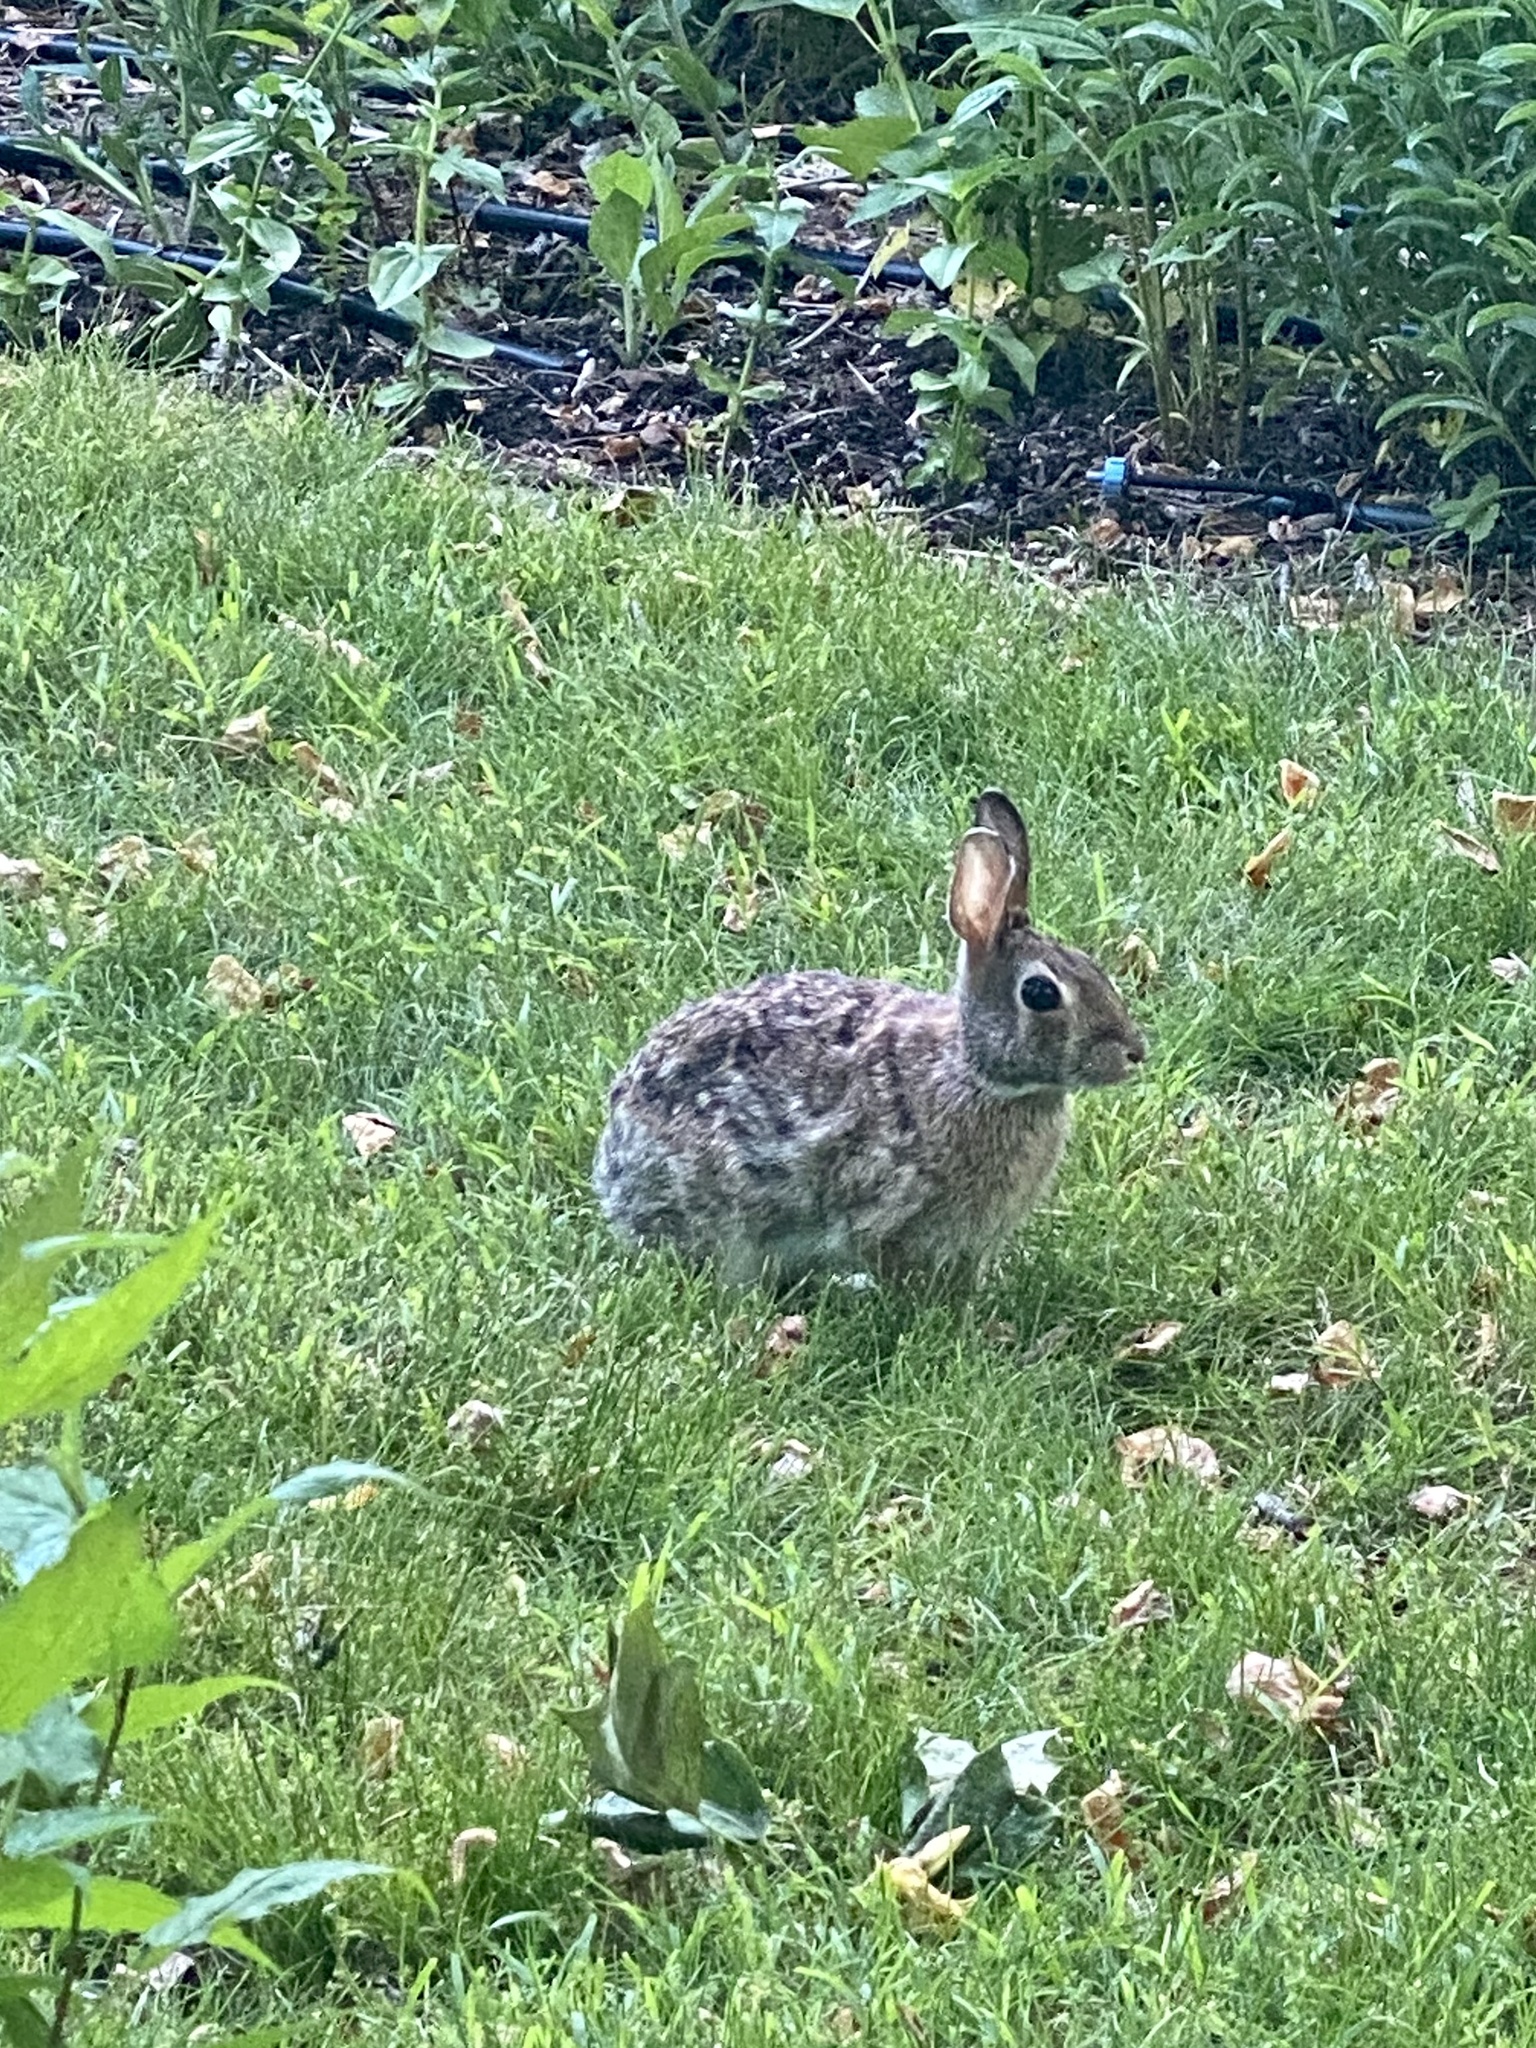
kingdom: Animalia
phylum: Chordata
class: Mammalia
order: Lagomorpha
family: Leporidae
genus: Sylvilagus
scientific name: Sylvilagus floridanus
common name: Eastern cottontail
